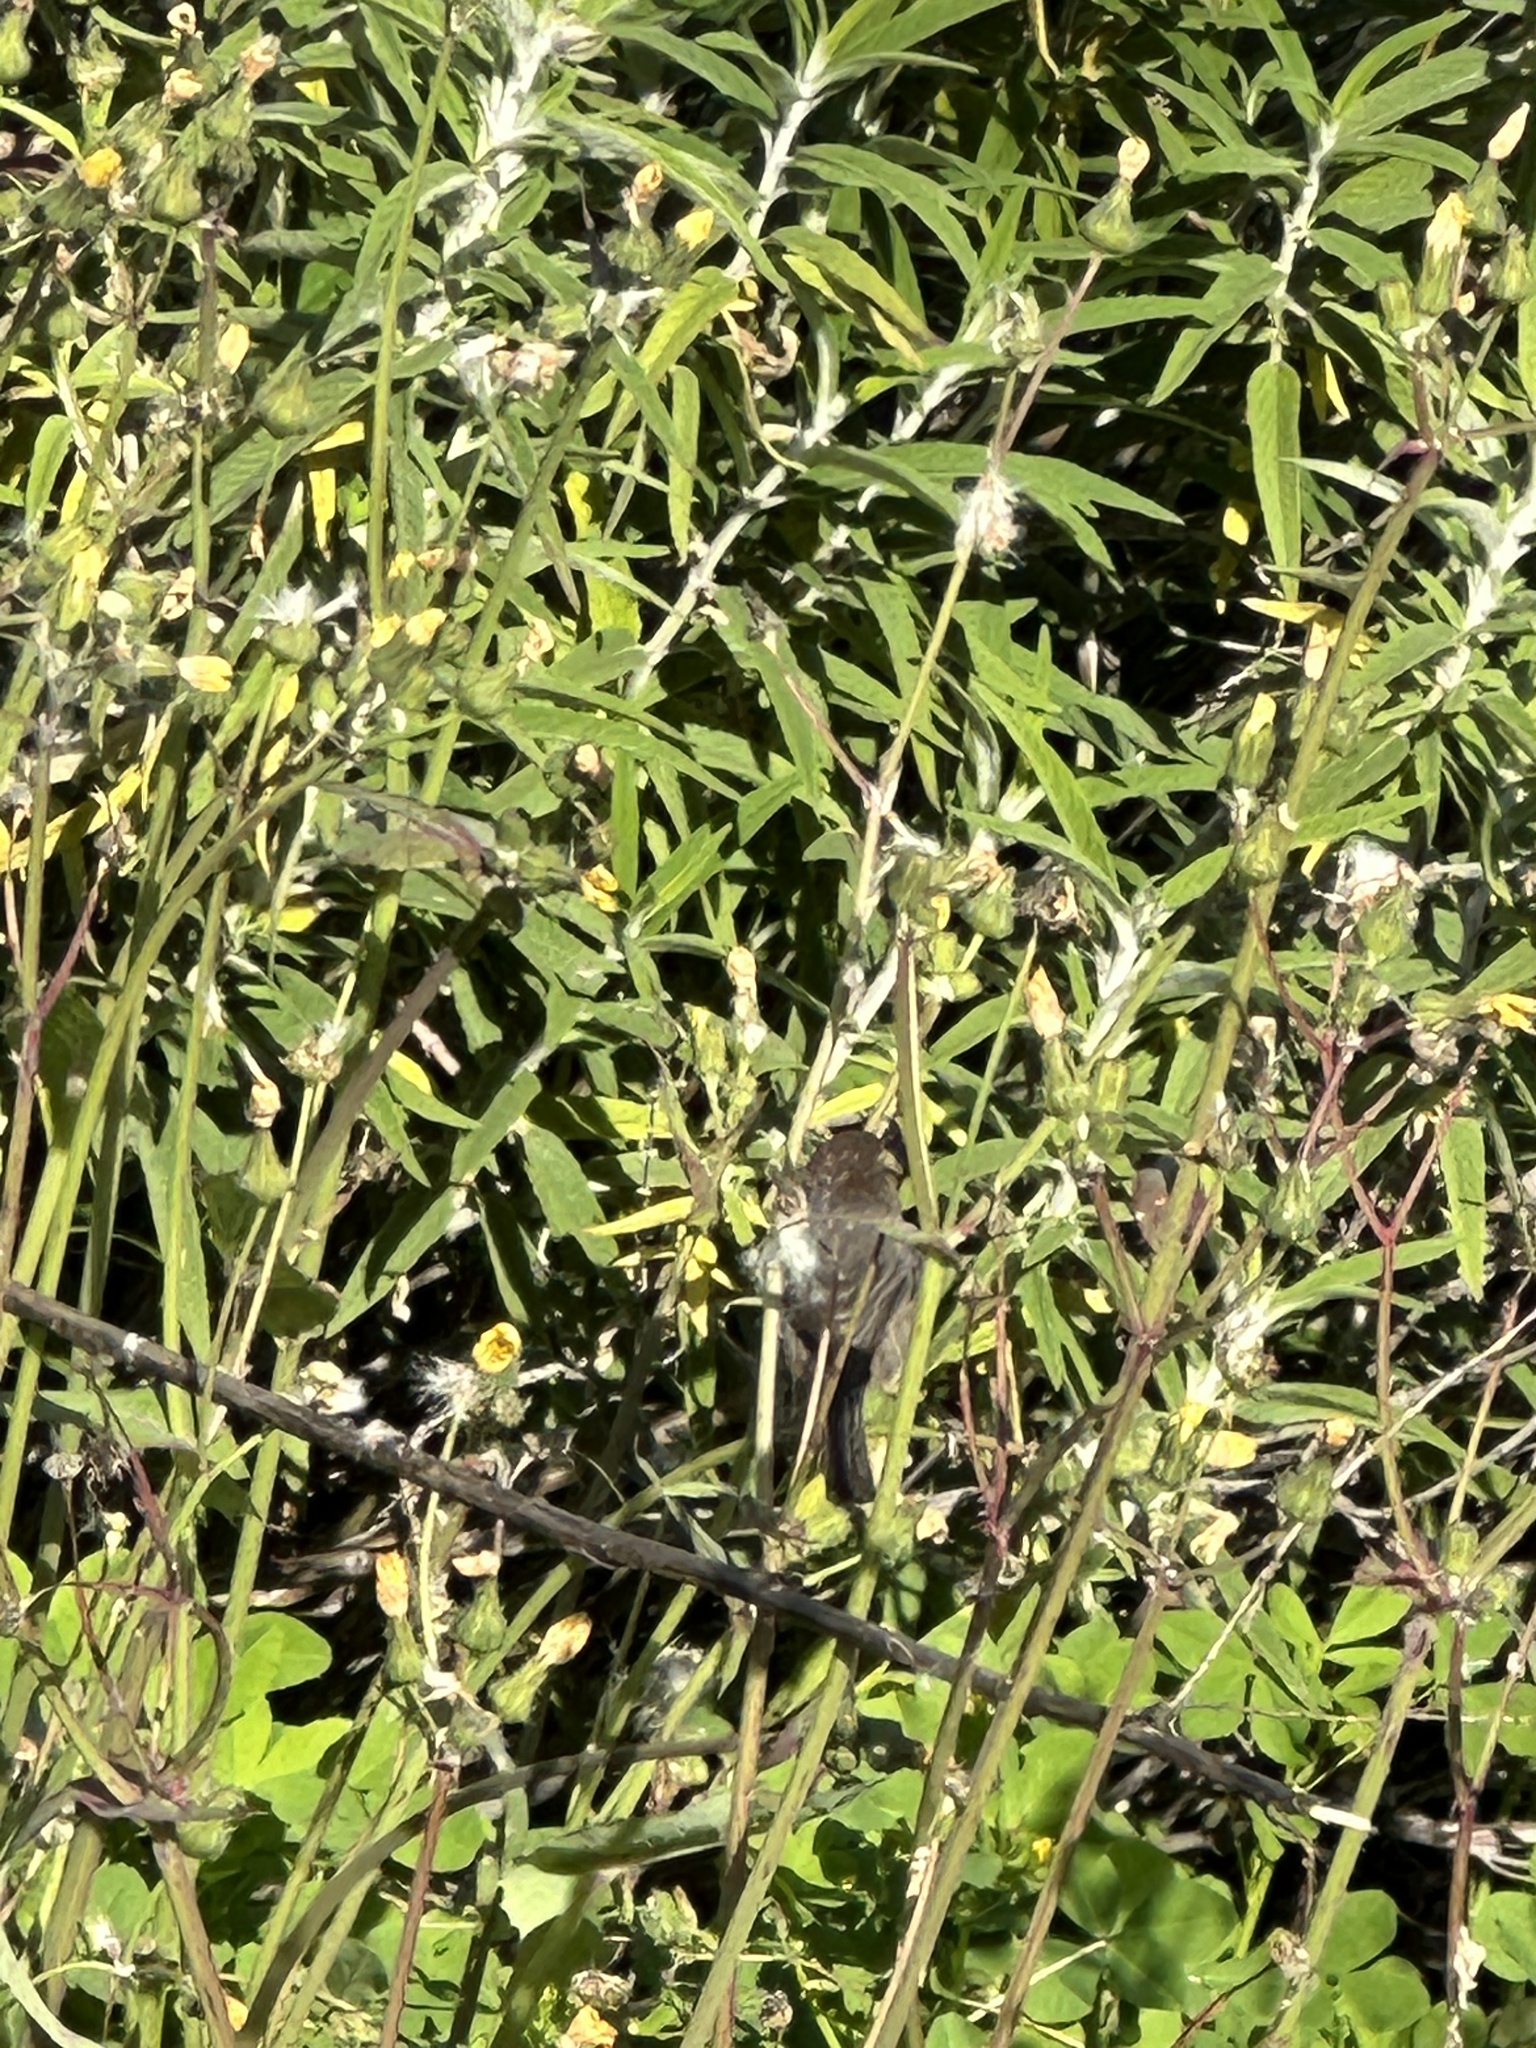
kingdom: Animalia
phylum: Chordata
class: Aves
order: Passeriformes
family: Sylviidae
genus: Chamaea
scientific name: Chamaea fasciata
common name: Wrentit
